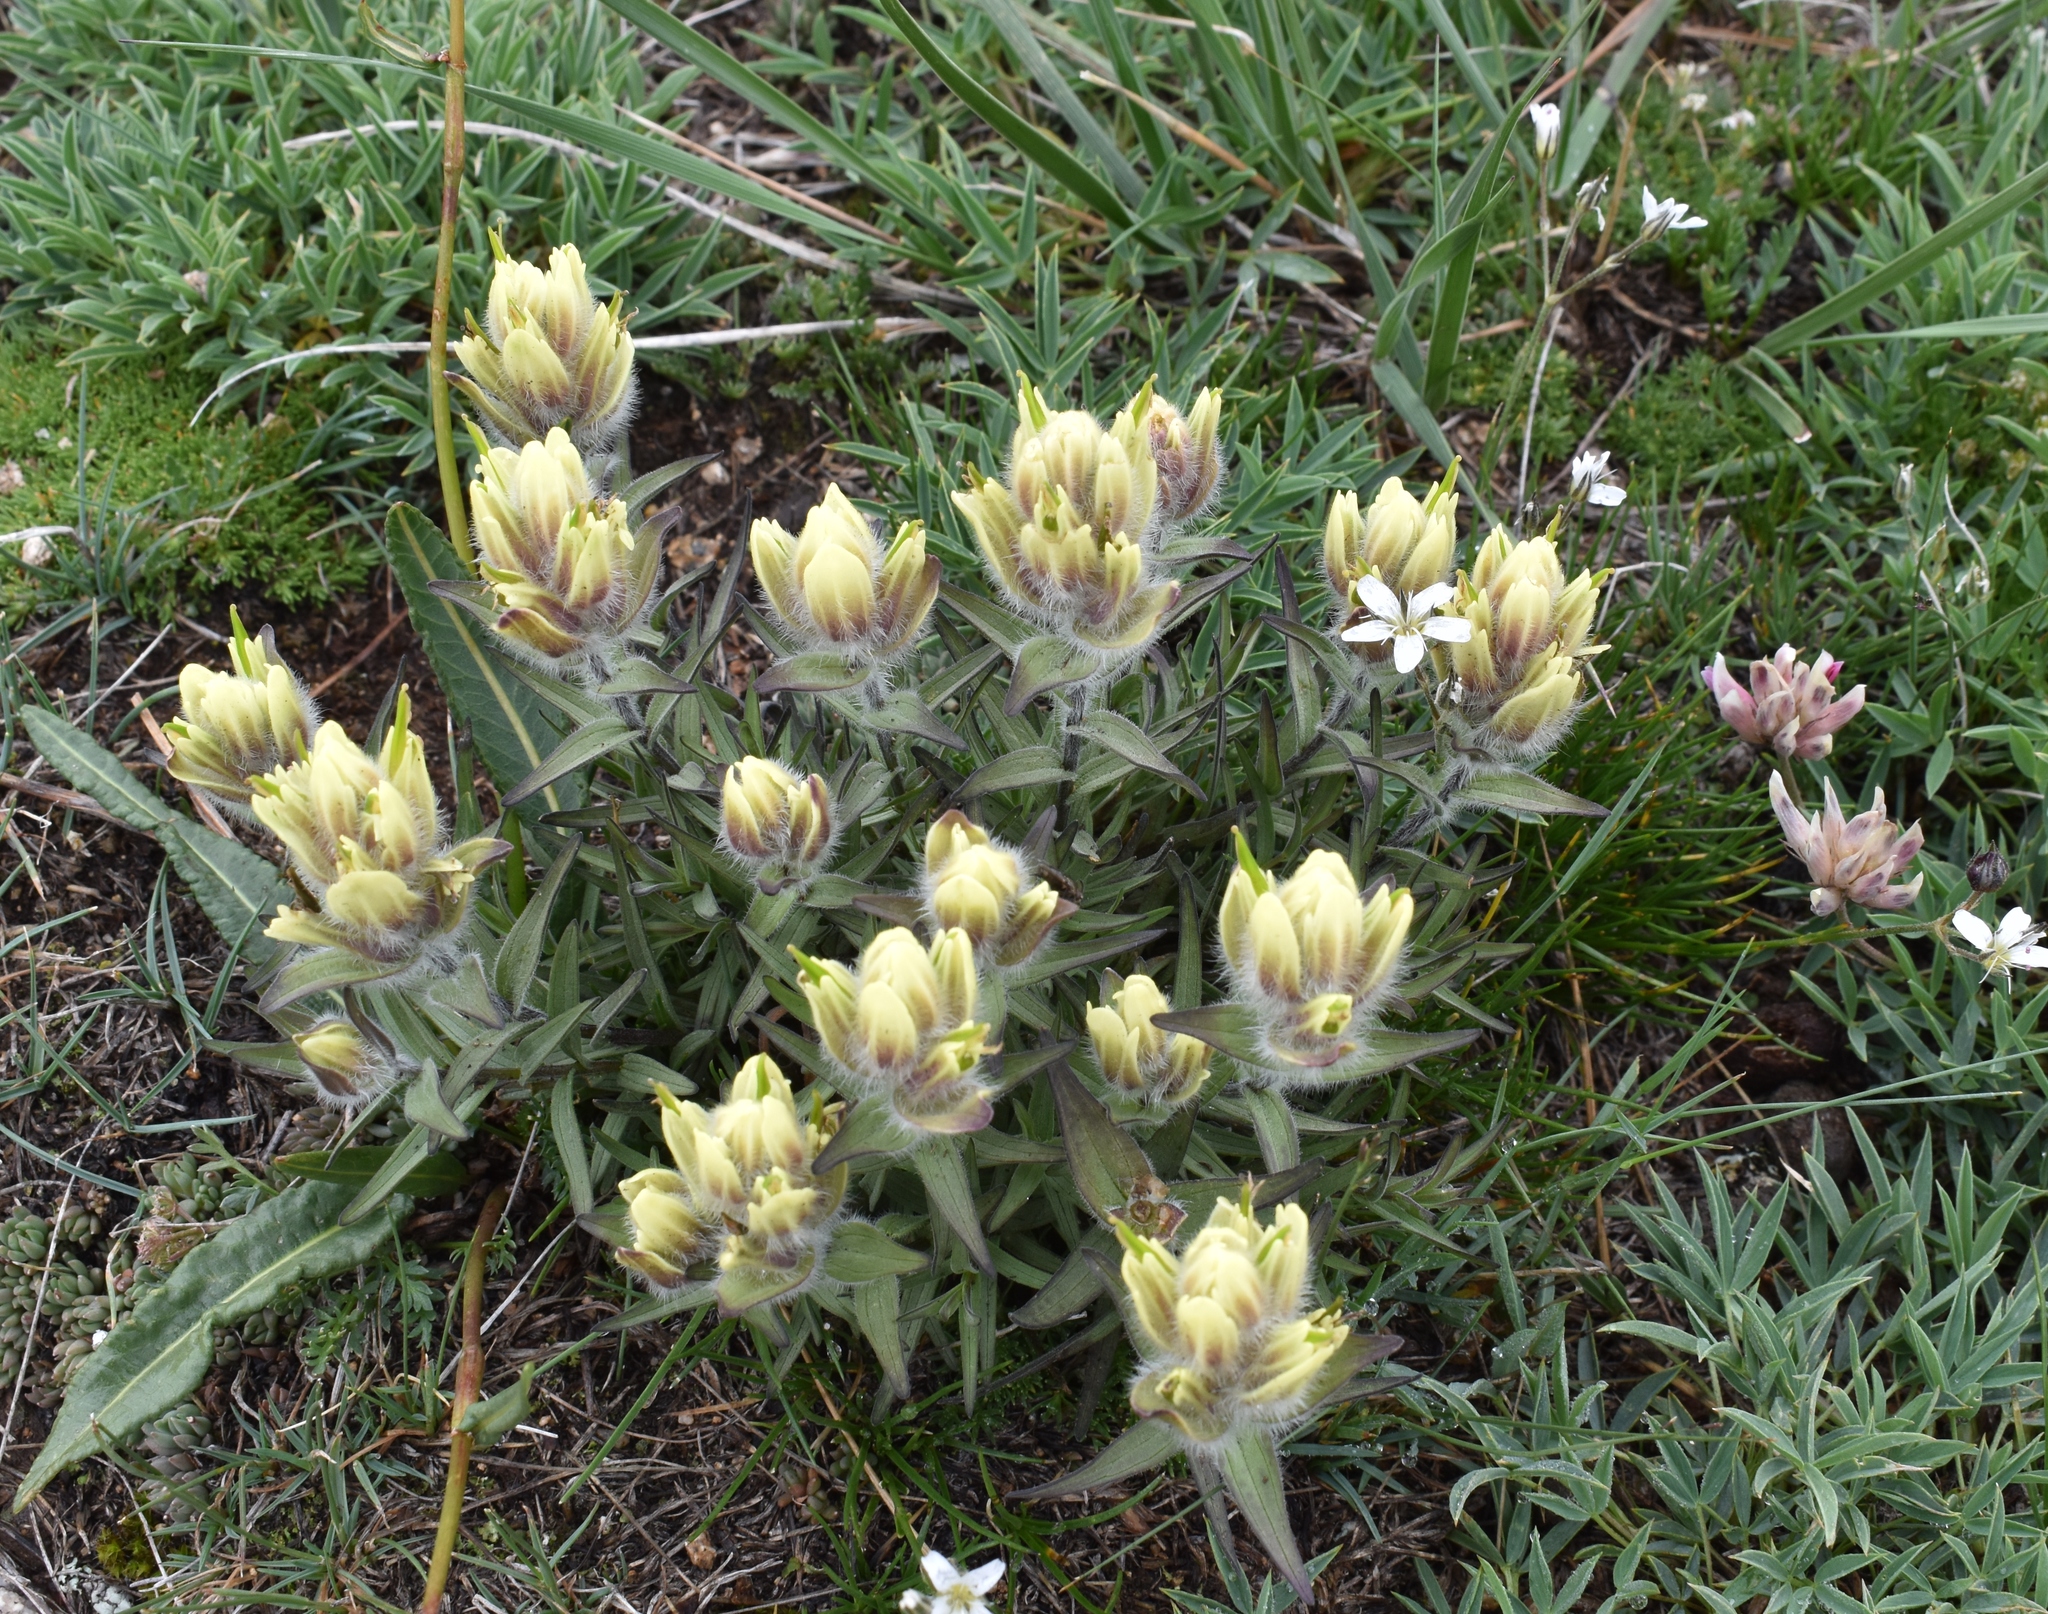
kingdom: Plantae
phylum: Tracheophyta
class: Magnoliopsida
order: Lamiales
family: Orobanchaceae
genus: Castilleja
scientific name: Castilleja occidentalis
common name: Western paintbrush
